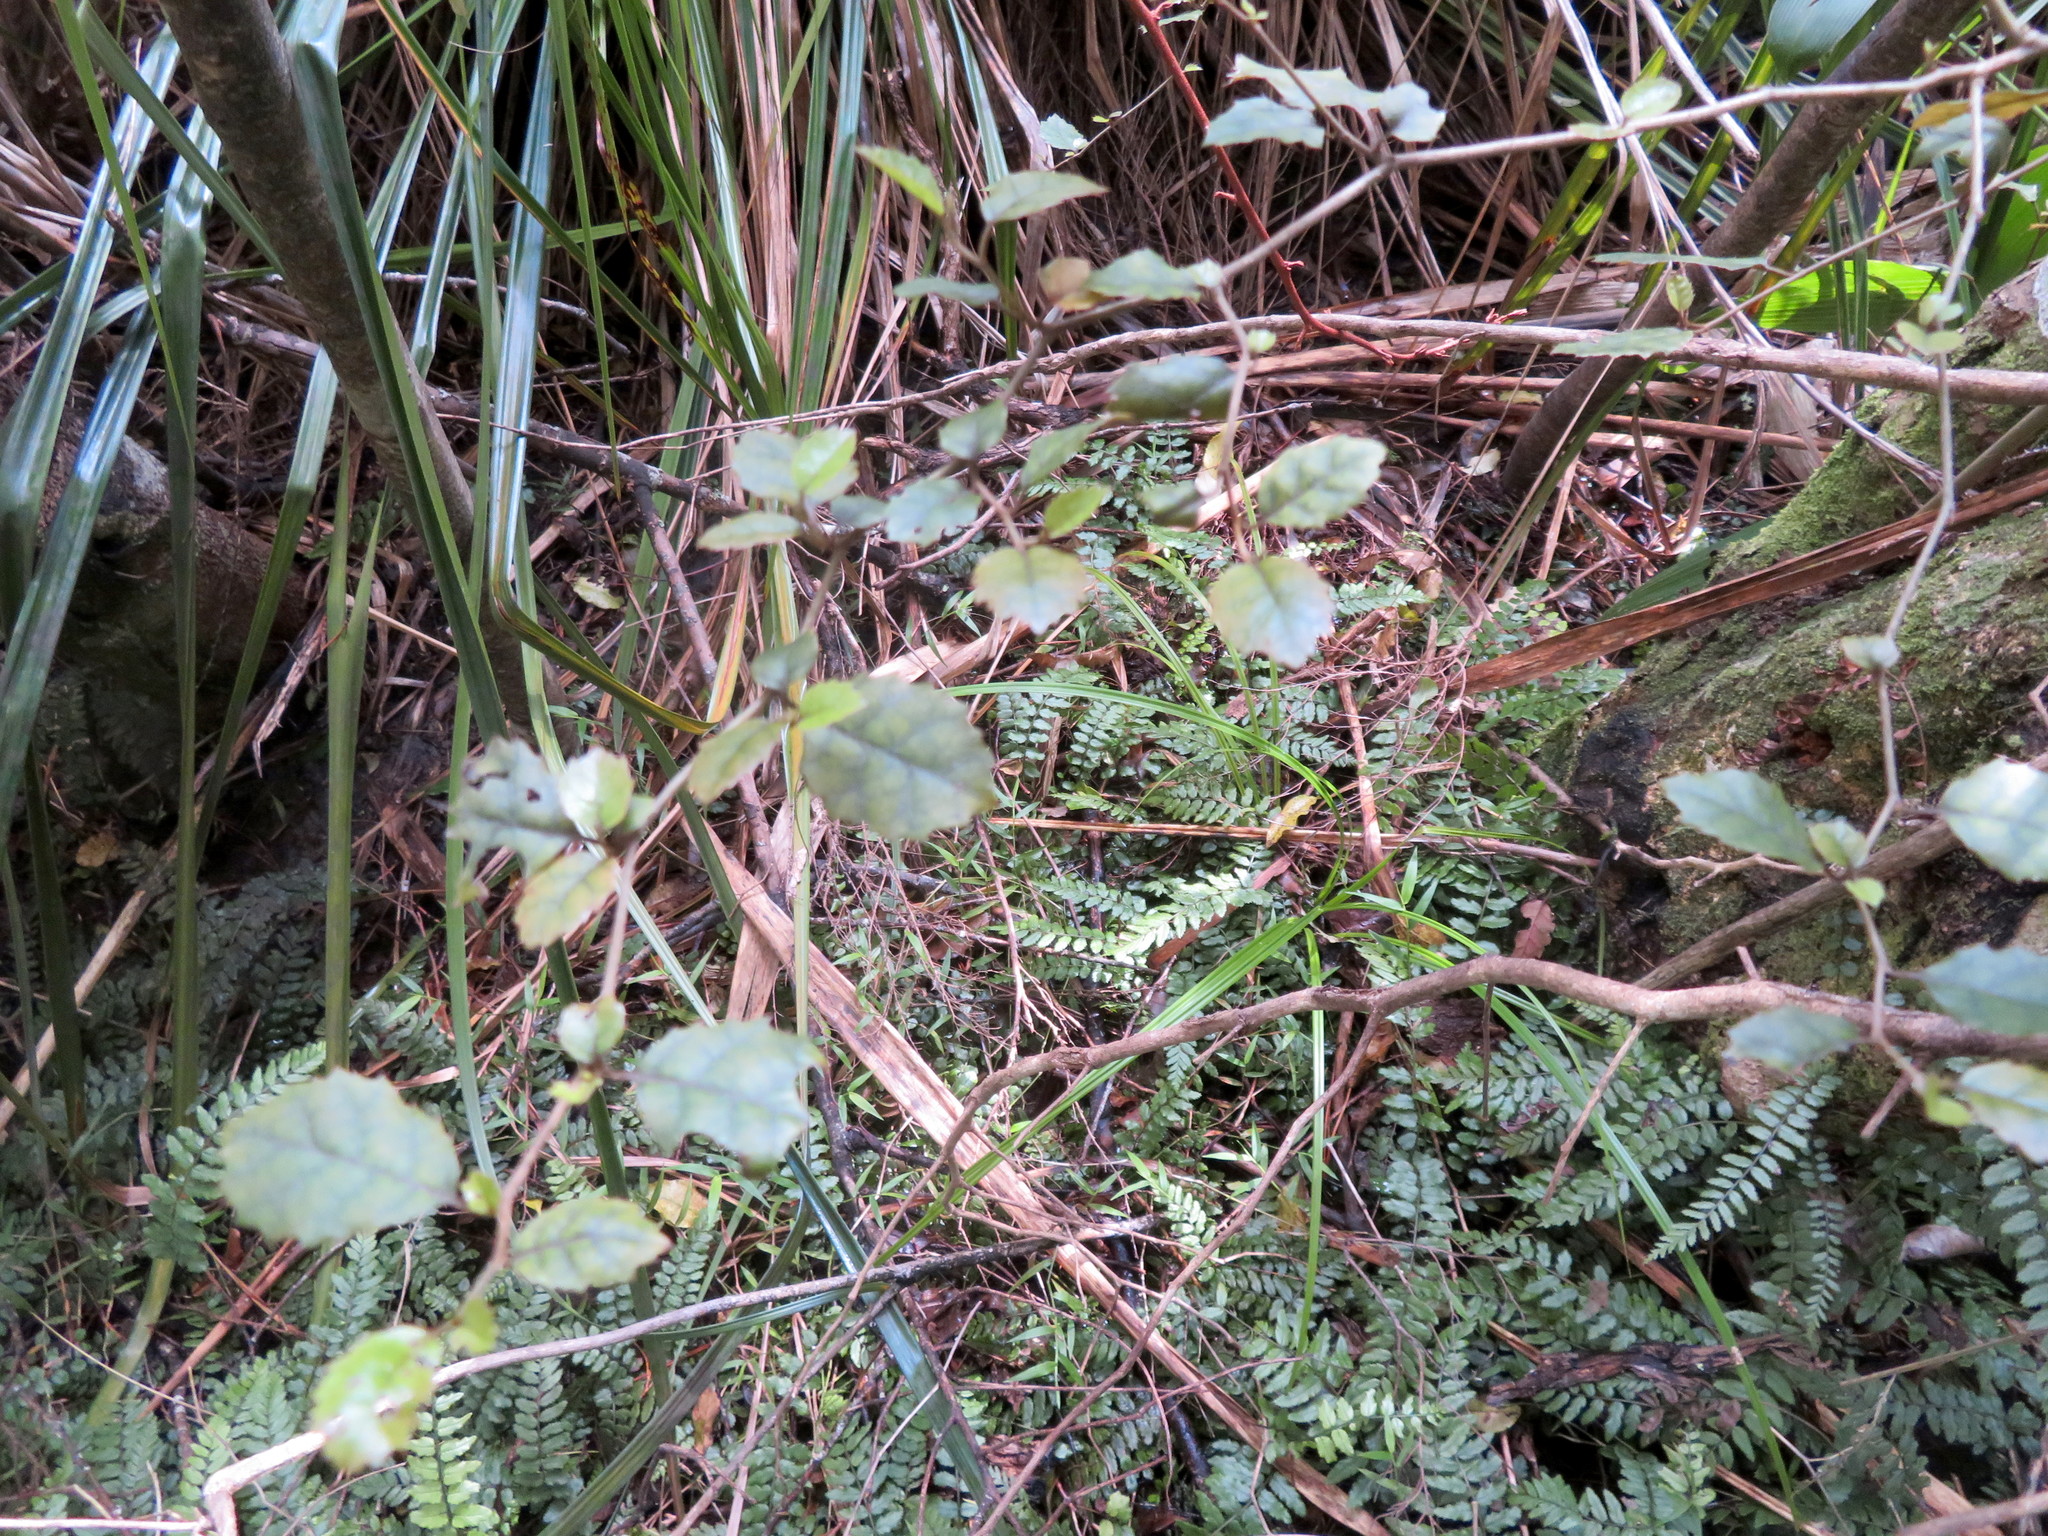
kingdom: Plantae
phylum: Tracheophyta
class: Magnoliopsida
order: Asterales
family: Rousseaceae
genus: Carpodetus
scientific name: Carpodetus serratus
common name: White mapau
